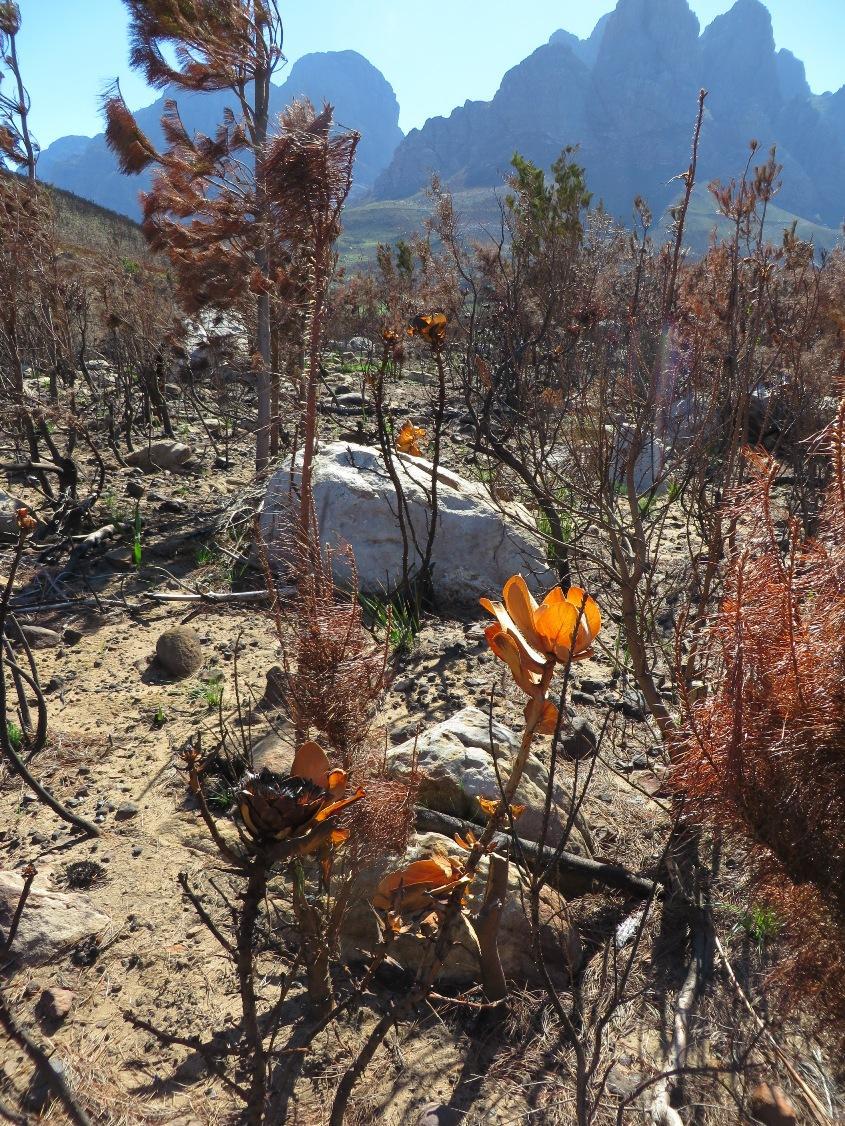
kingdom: Plantae
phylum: Tracheophyta
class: Magnoliopsida
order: Proteales
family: Proteaceae
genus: Protea
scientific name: Protea grandiceps
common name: Red sugarbush
